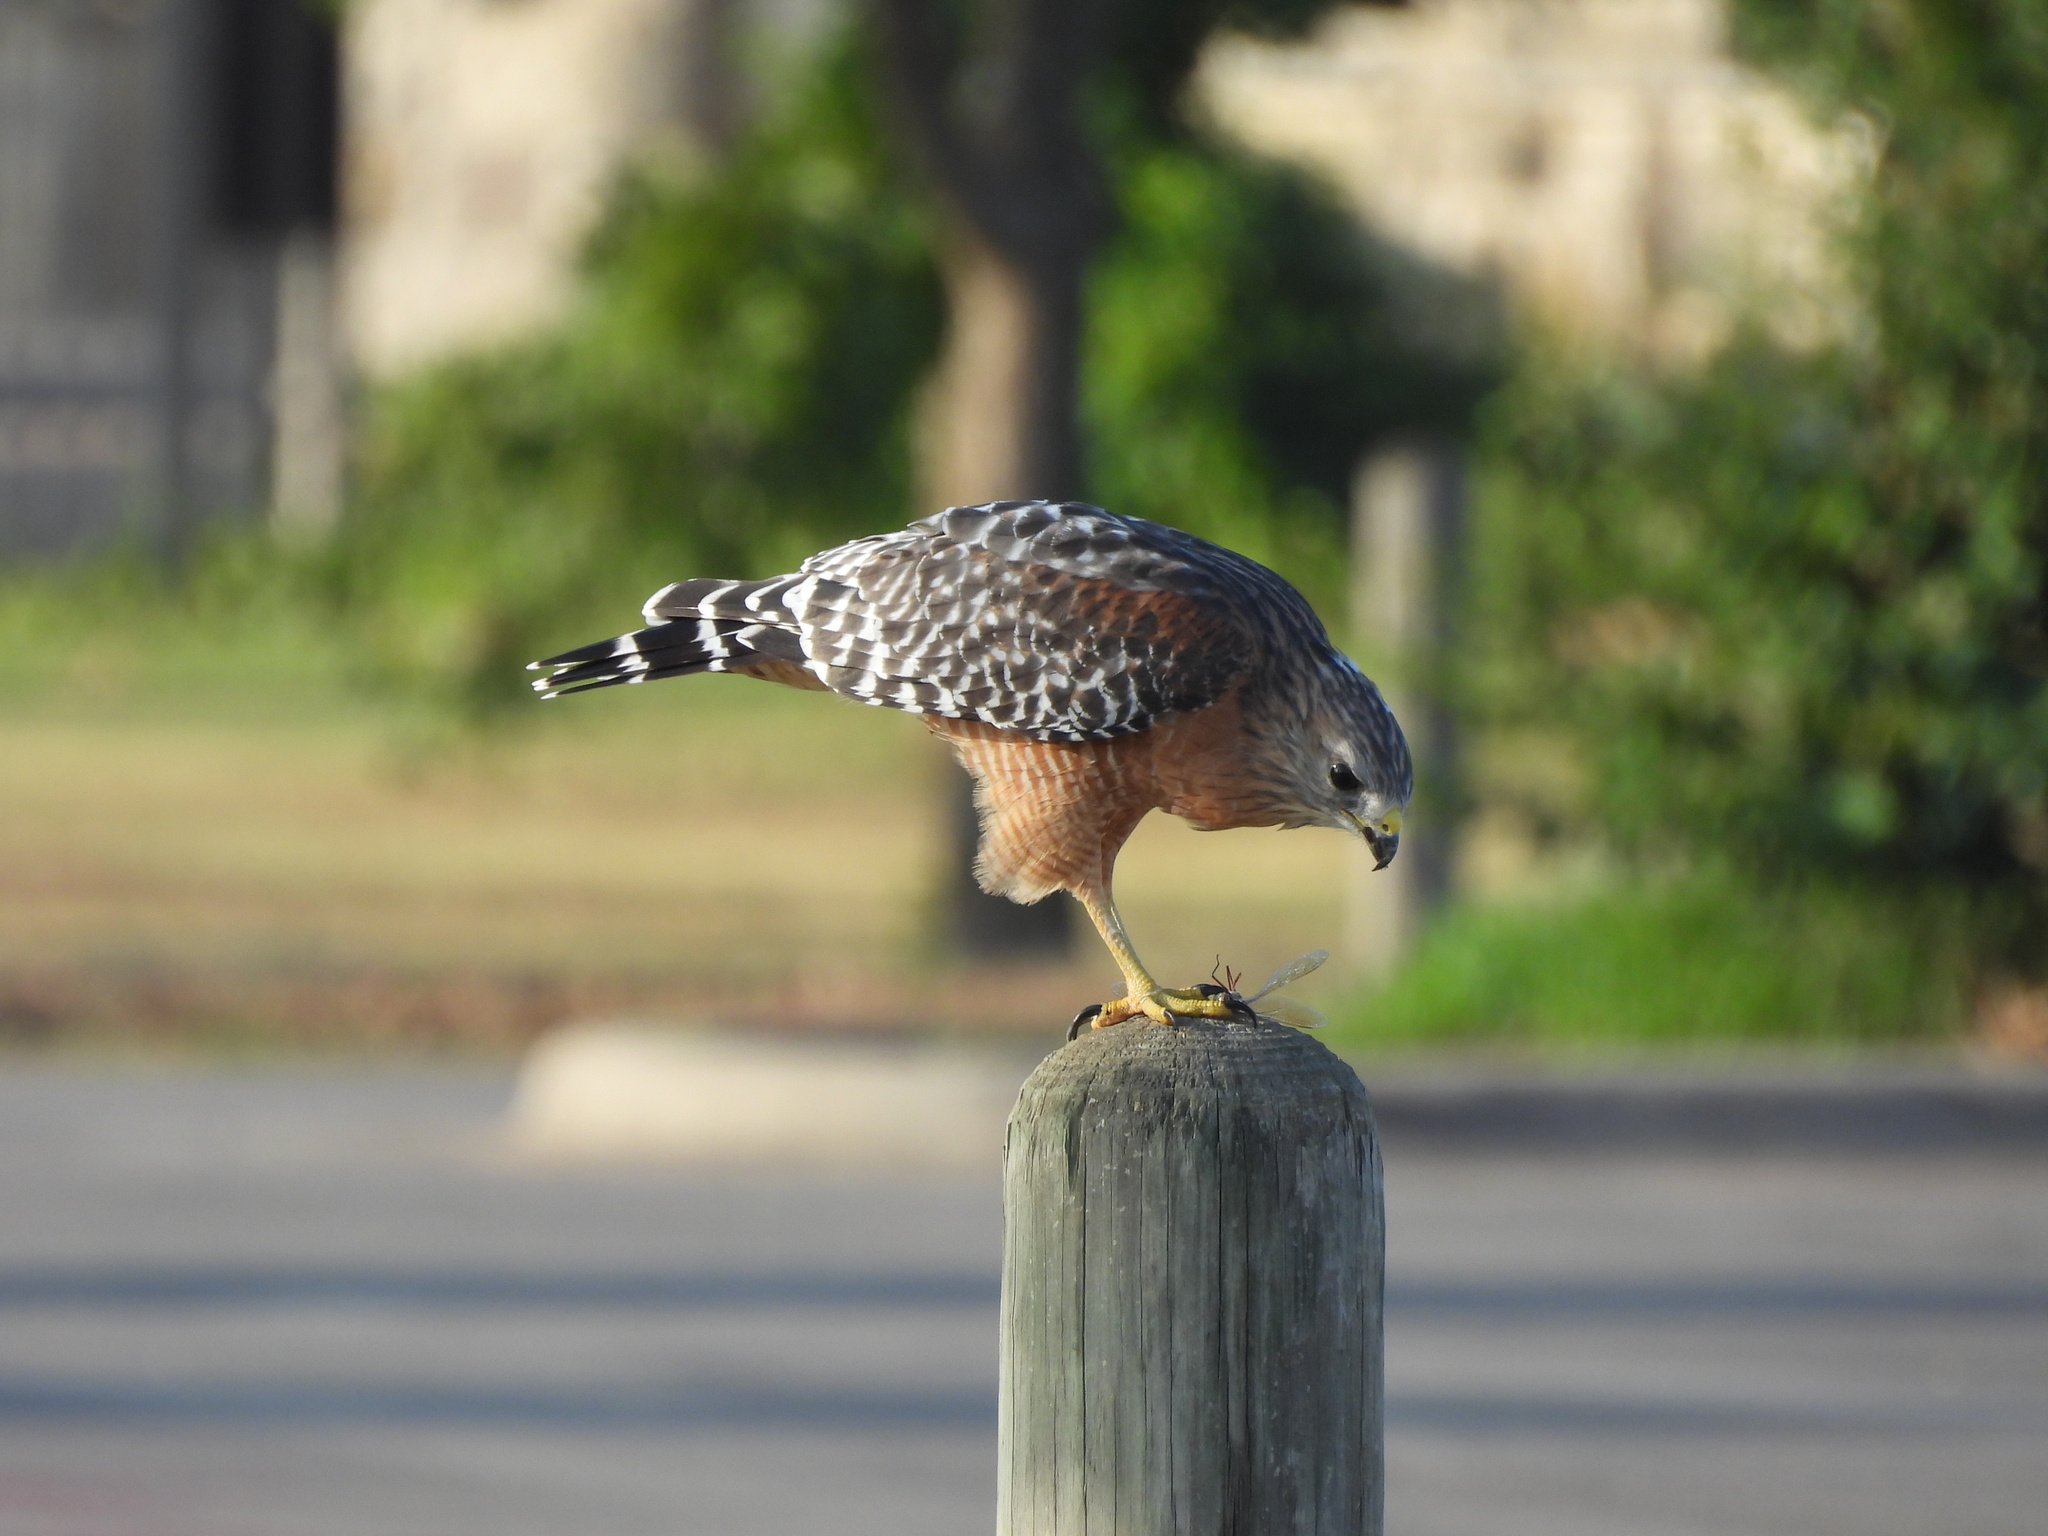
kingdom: Animalia
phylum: Chordata
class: Aves
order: Accipitriformes
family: Accipitridae
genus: Buteo
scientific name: Buteo lineatus
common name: Red-shouldered hawk
